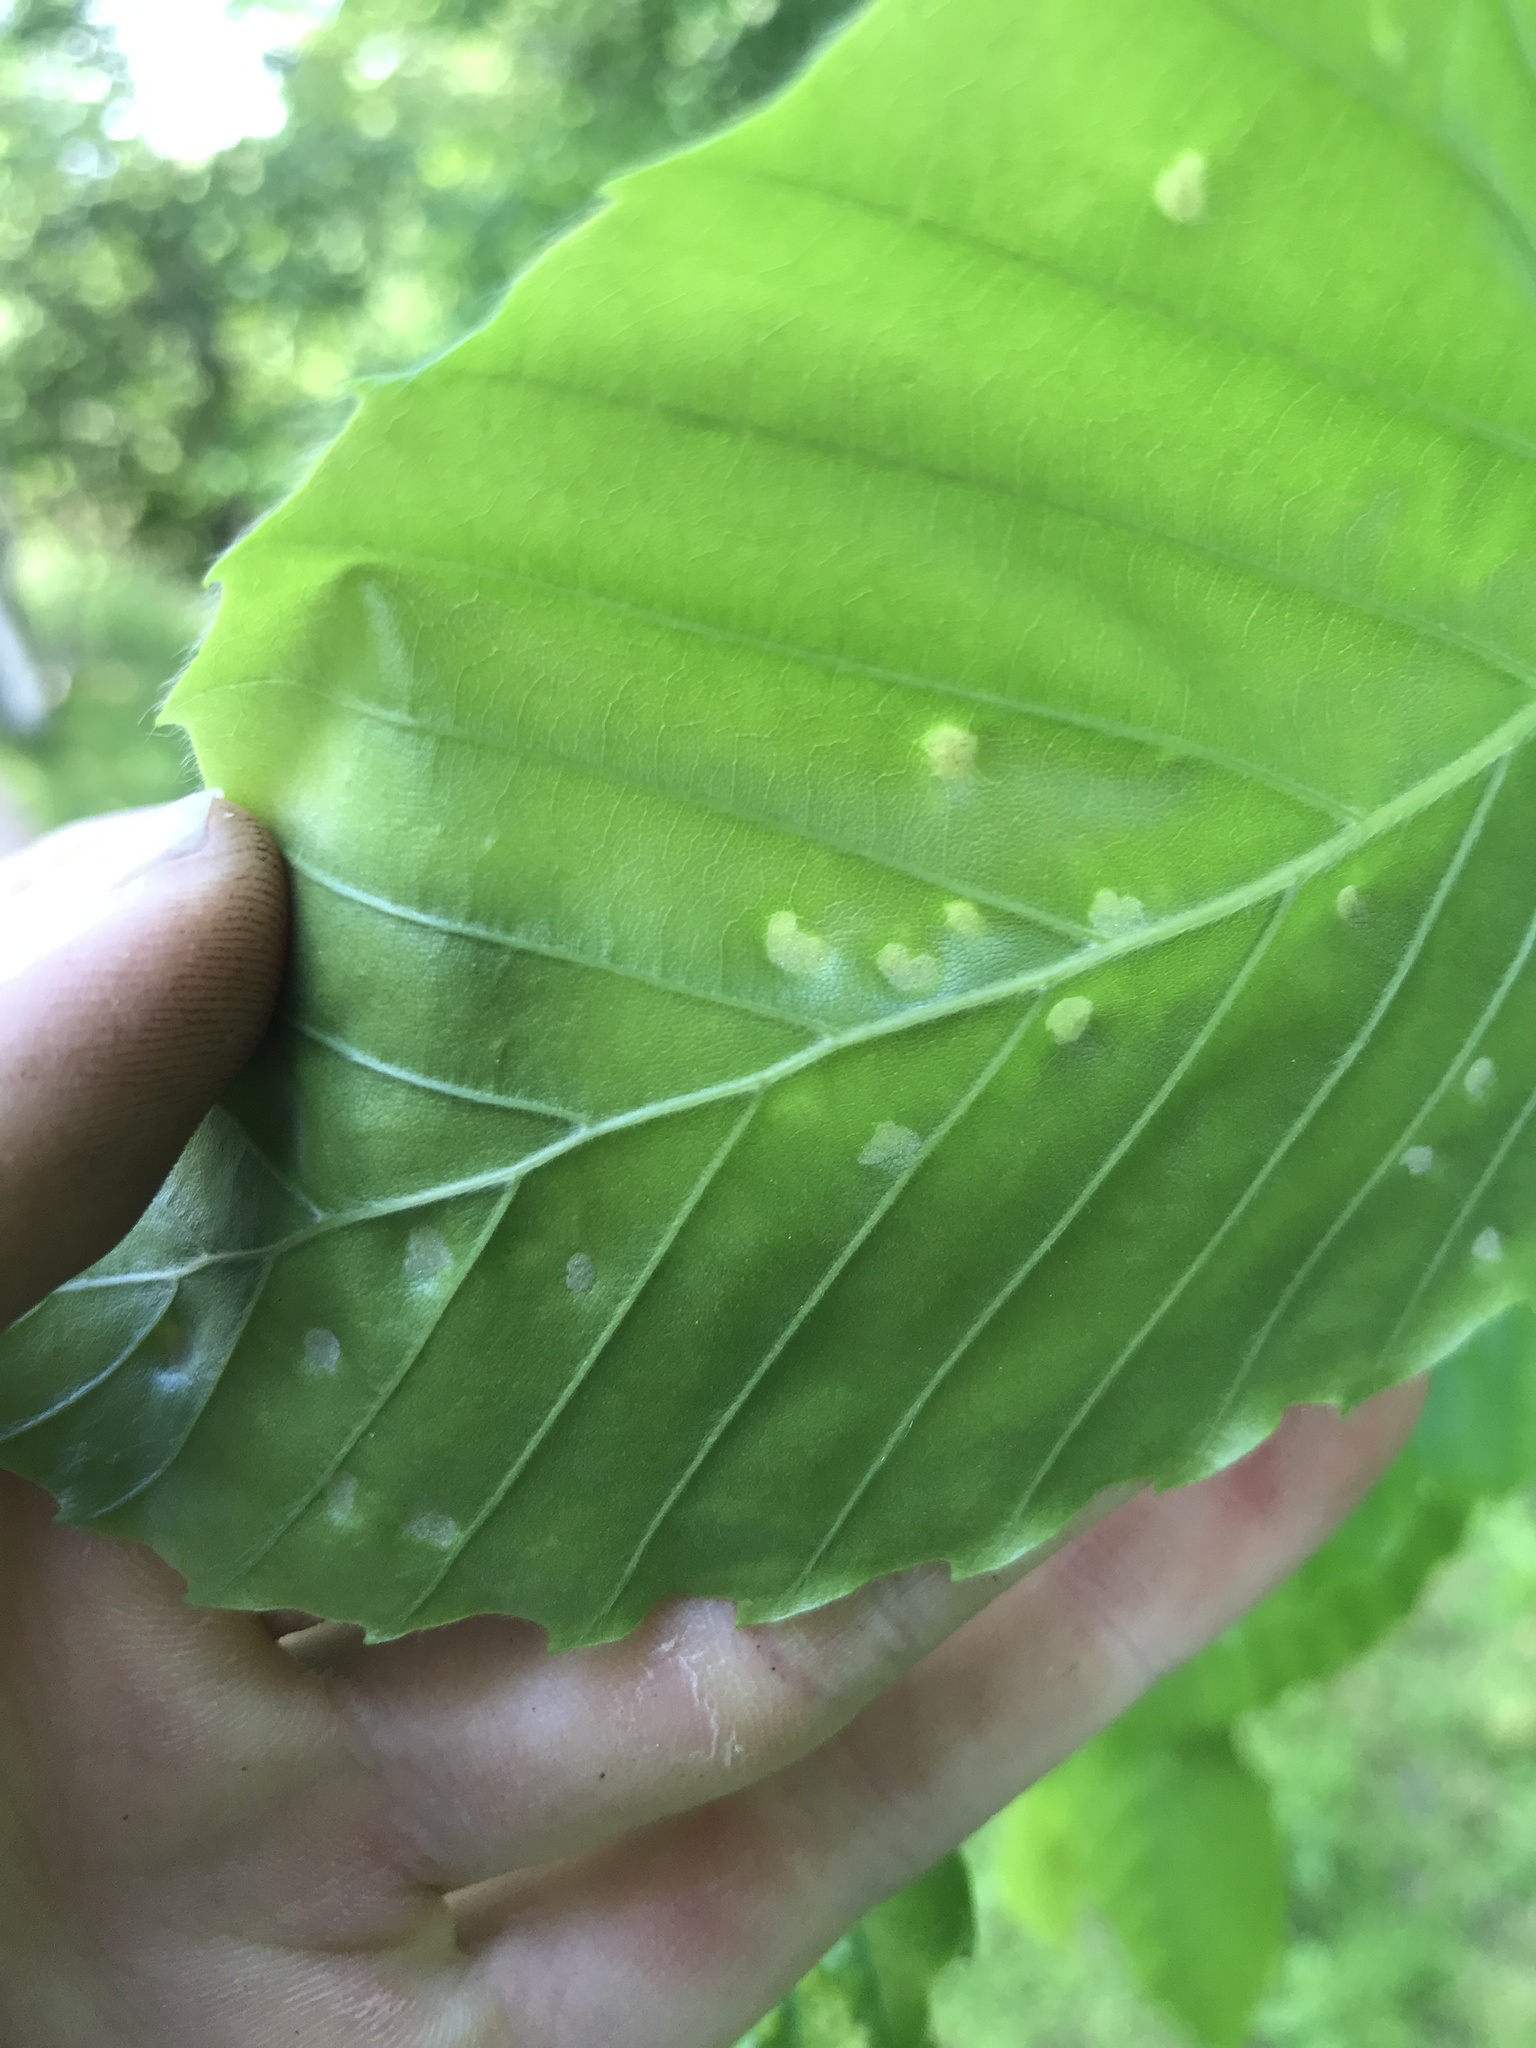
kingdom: Animalia
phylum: Arthropoda
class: Arachnida
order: Trombidiformes
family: Eriophyidae
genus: Acalitus
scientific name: Acalitus
